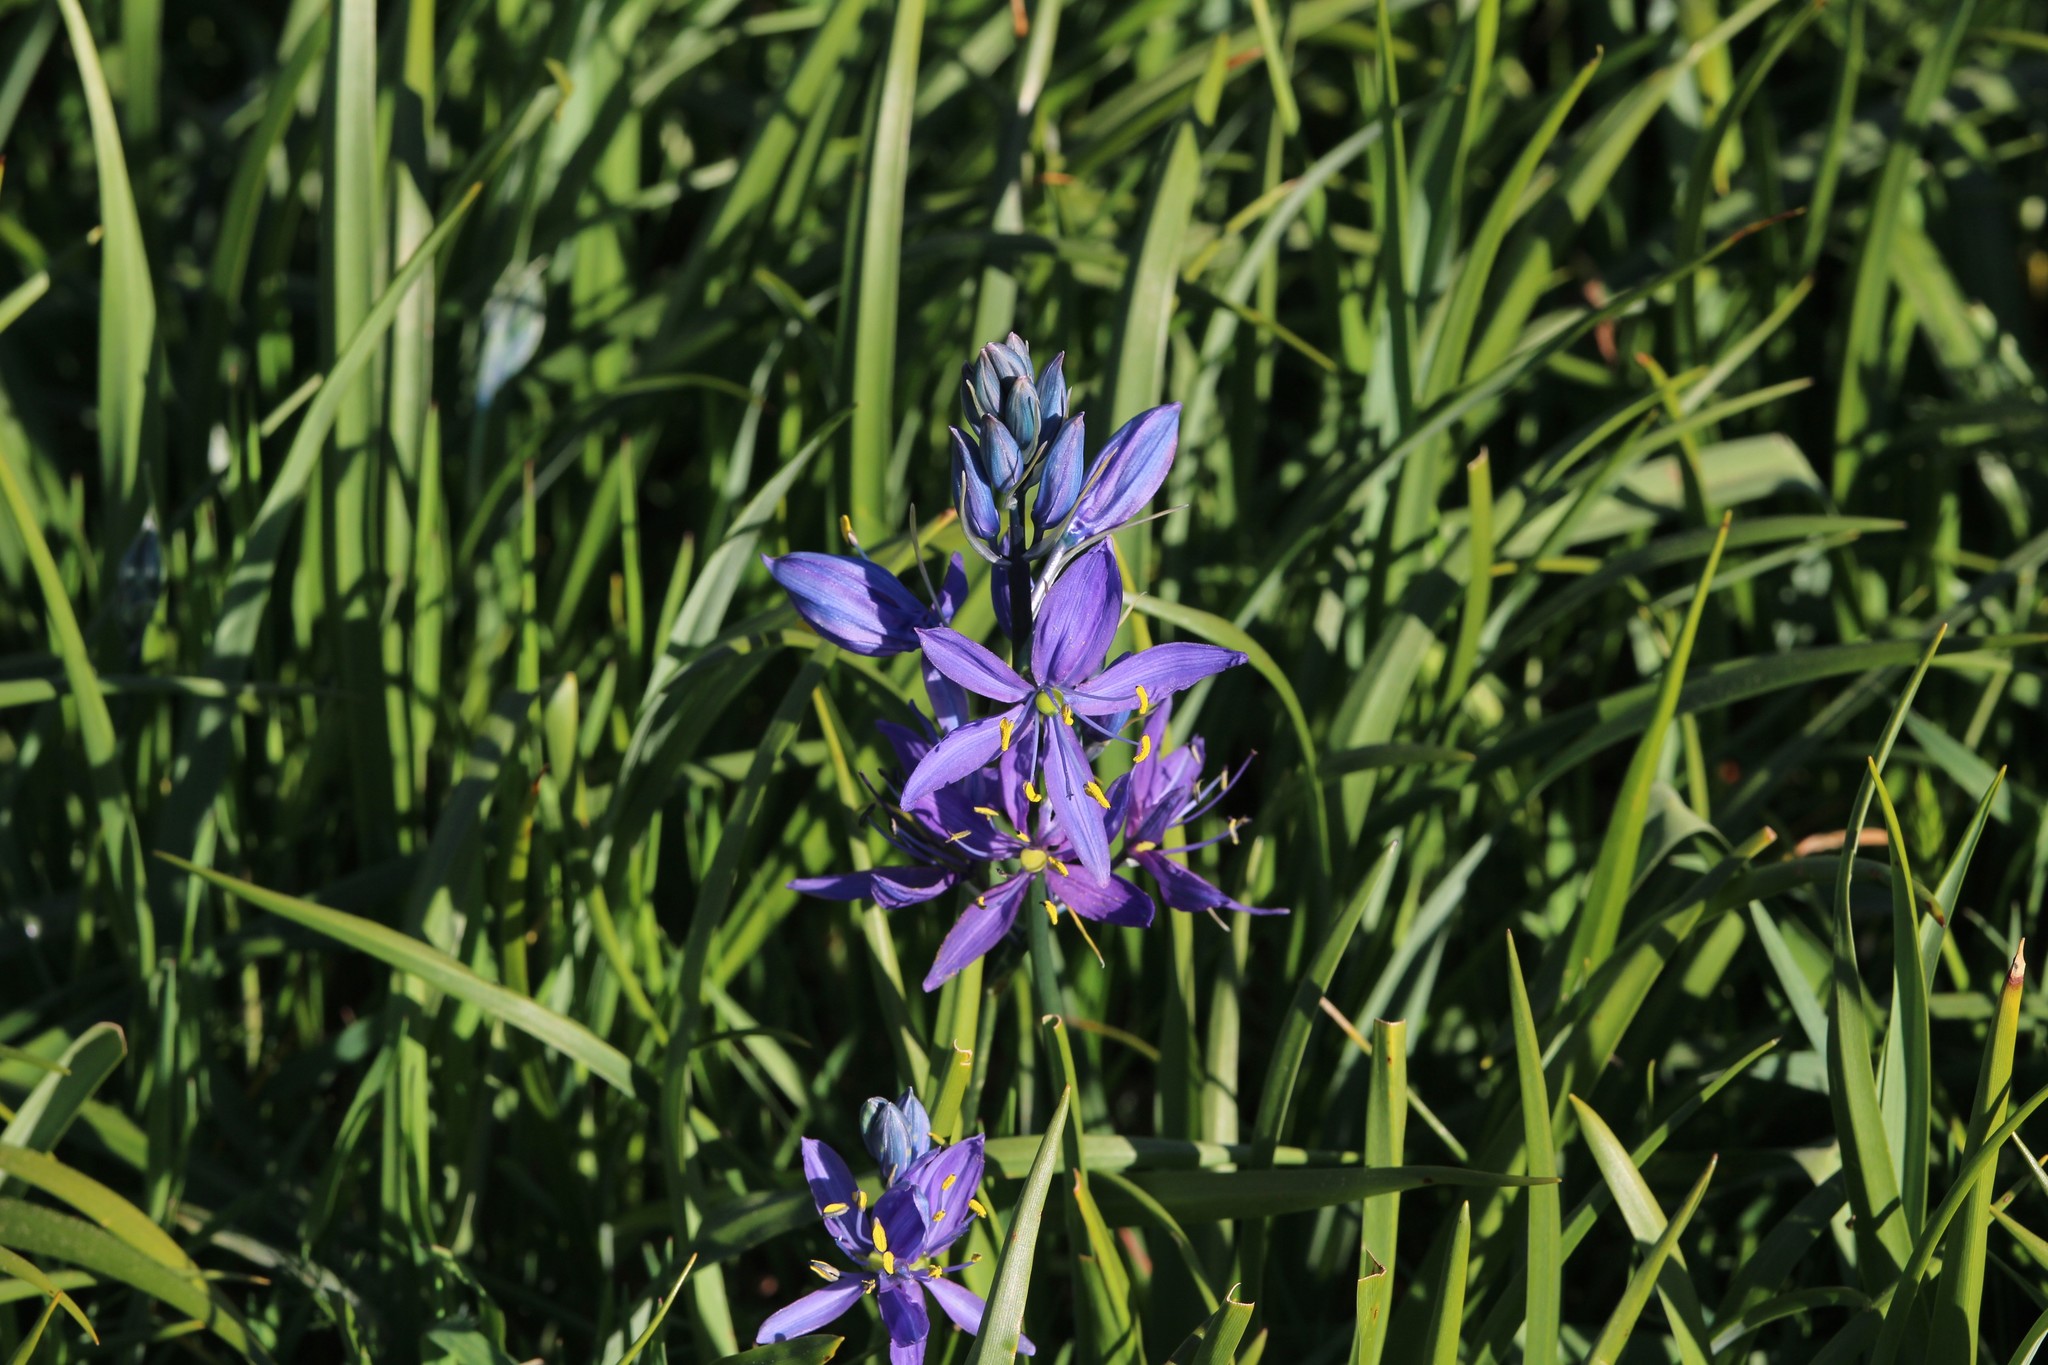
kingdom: Plantae
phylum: Tracheophyta
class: Liliopsida
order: Asparagales
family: Asparagaceae
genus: Camassia
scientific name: Camassia quamash
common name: Common camas
